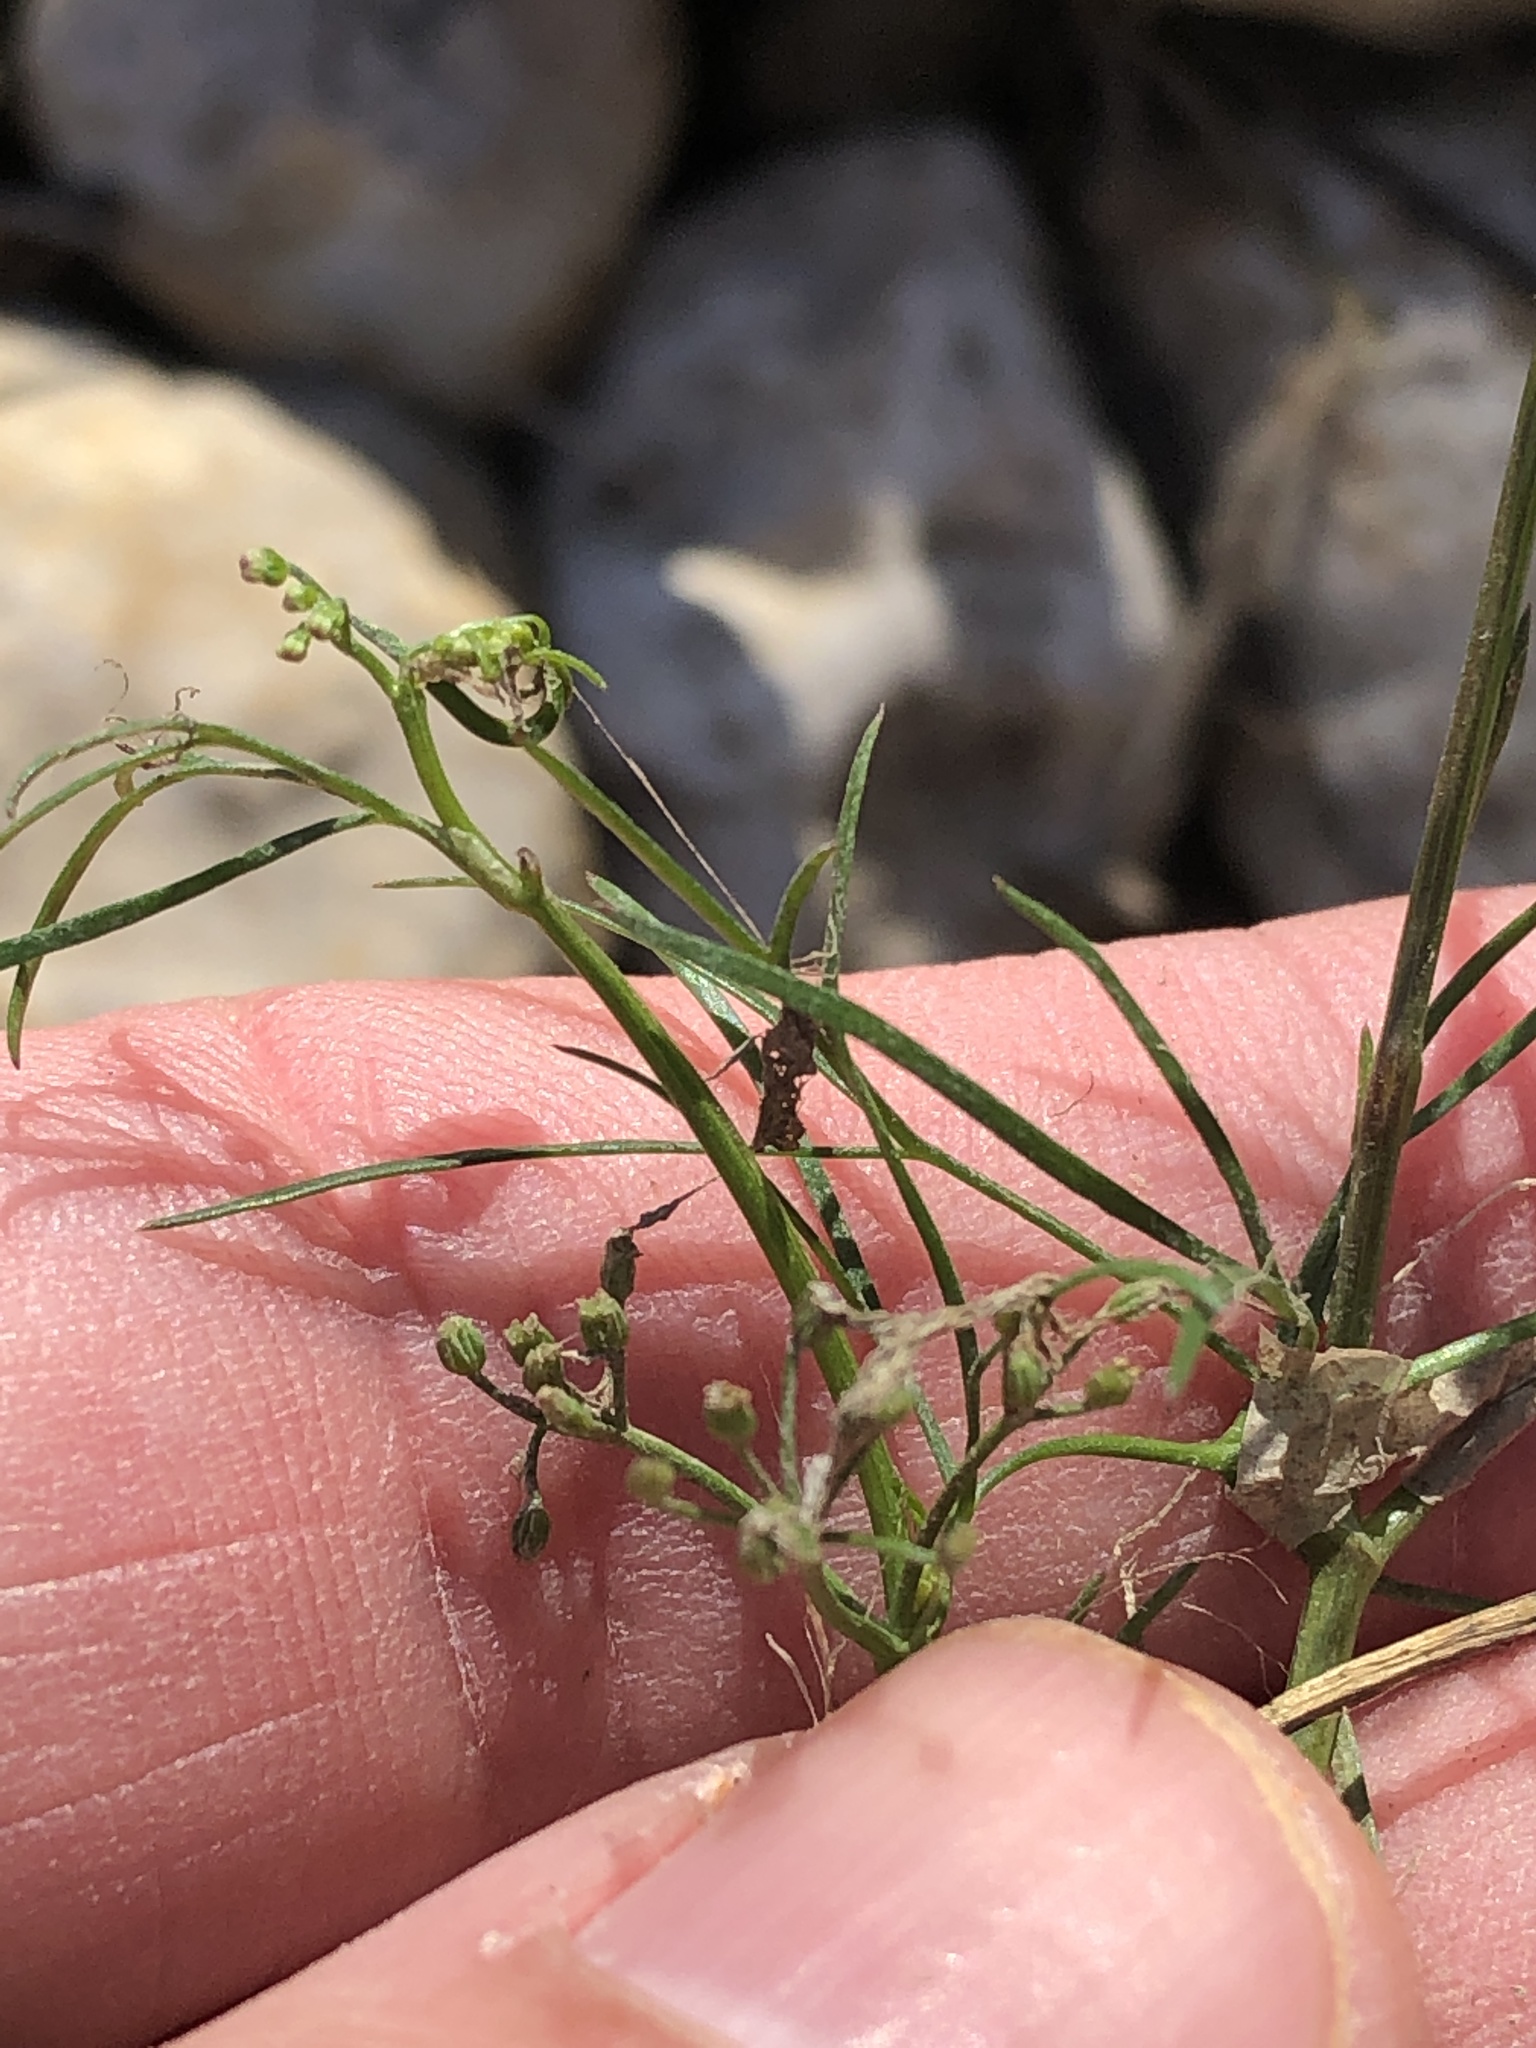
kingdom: Plantae
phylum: Tracheophyta
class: Magnoliopsida
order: Apiales
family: Apiaceae
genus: Cyclospermum
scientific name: Cyclospermum leptophyllum
